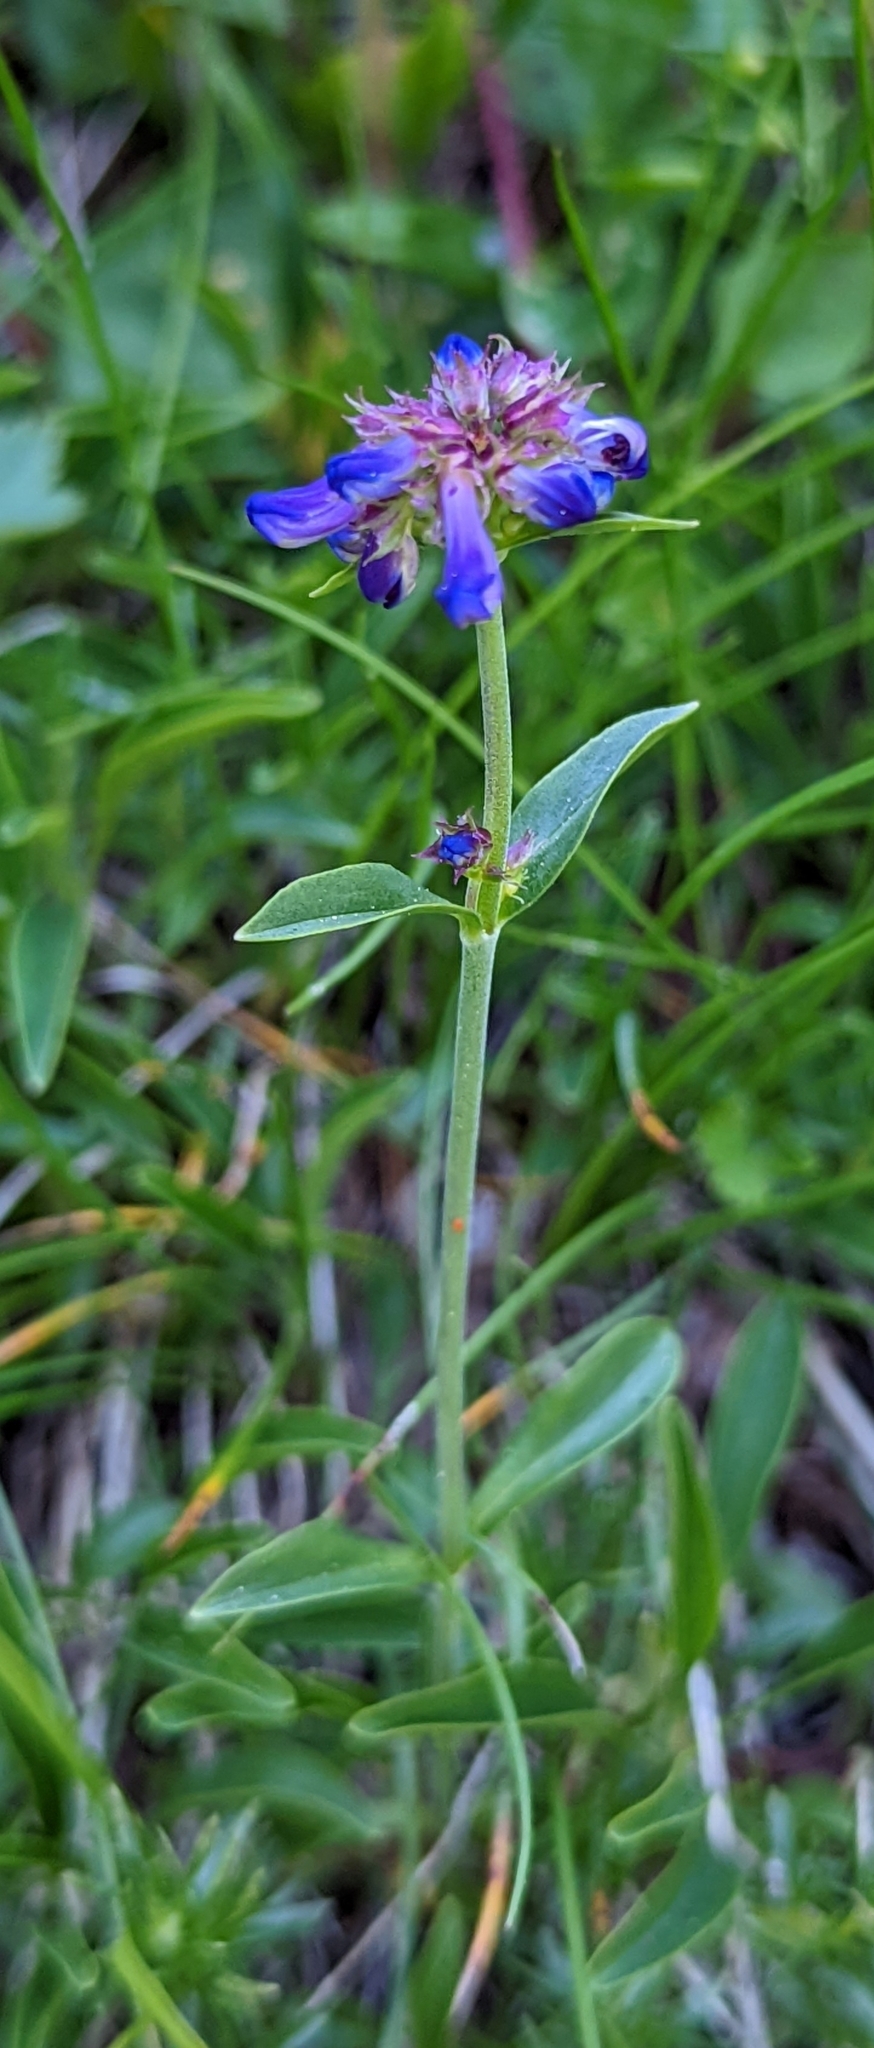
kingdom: Plantae
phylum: Tracheophyta
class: Magnoliopsida
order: Lamiales
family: Plantaginaceae
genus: Penstemon
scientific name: Penstemon procerus
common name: Small-flower penstemon
